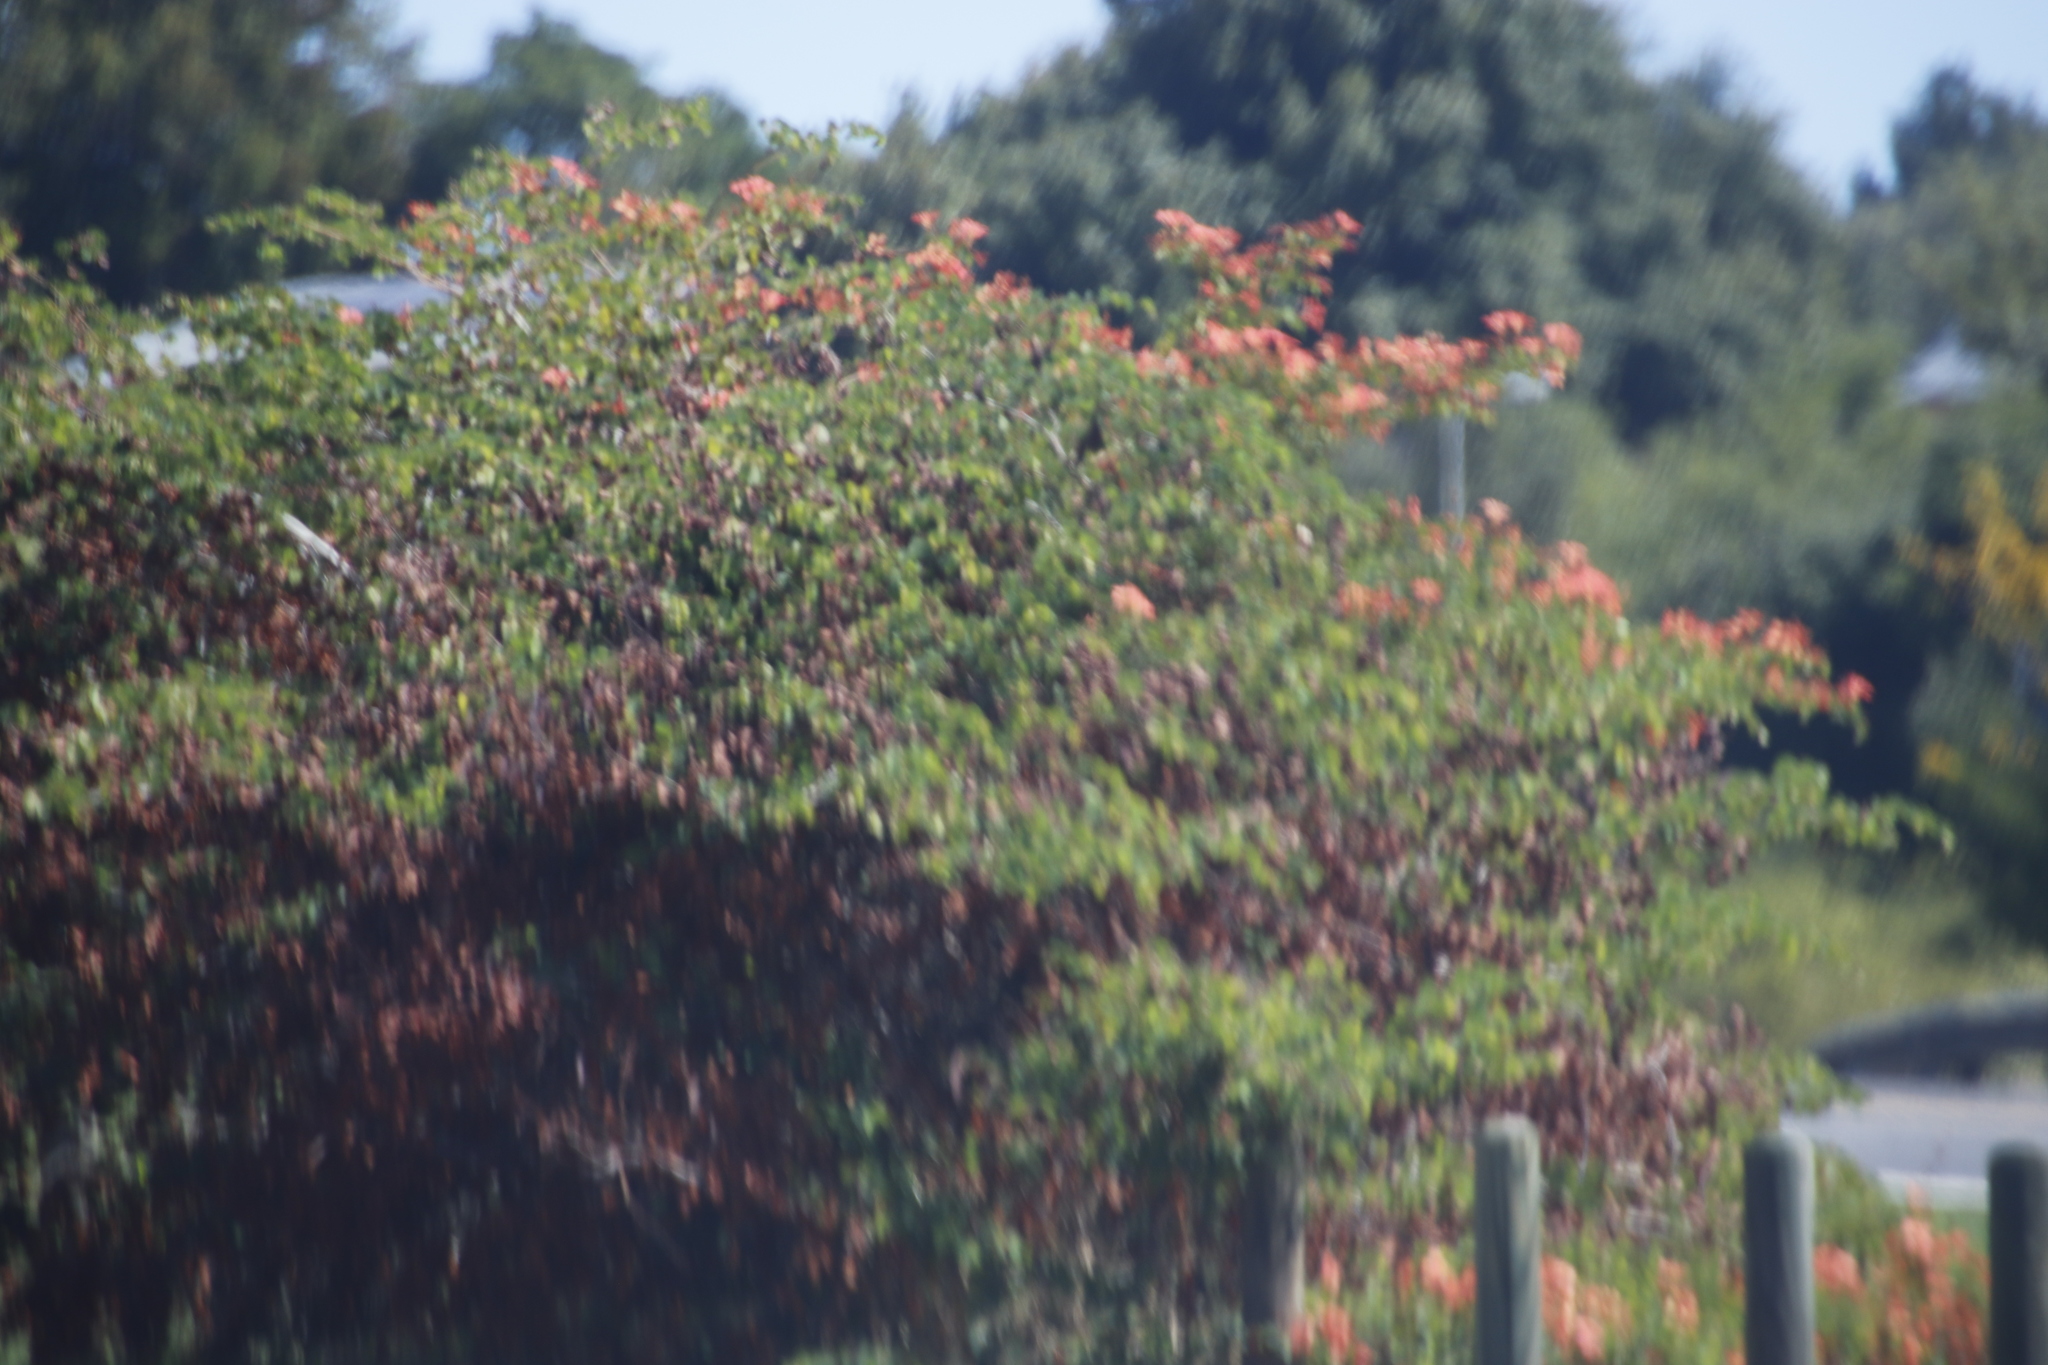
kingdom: Plantae
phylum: Tracheophyta
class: Magnoliopsida
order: Fabales
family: Fabaceae
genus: Bauhinia
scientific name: Bauhinia galpinii
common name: African plume
